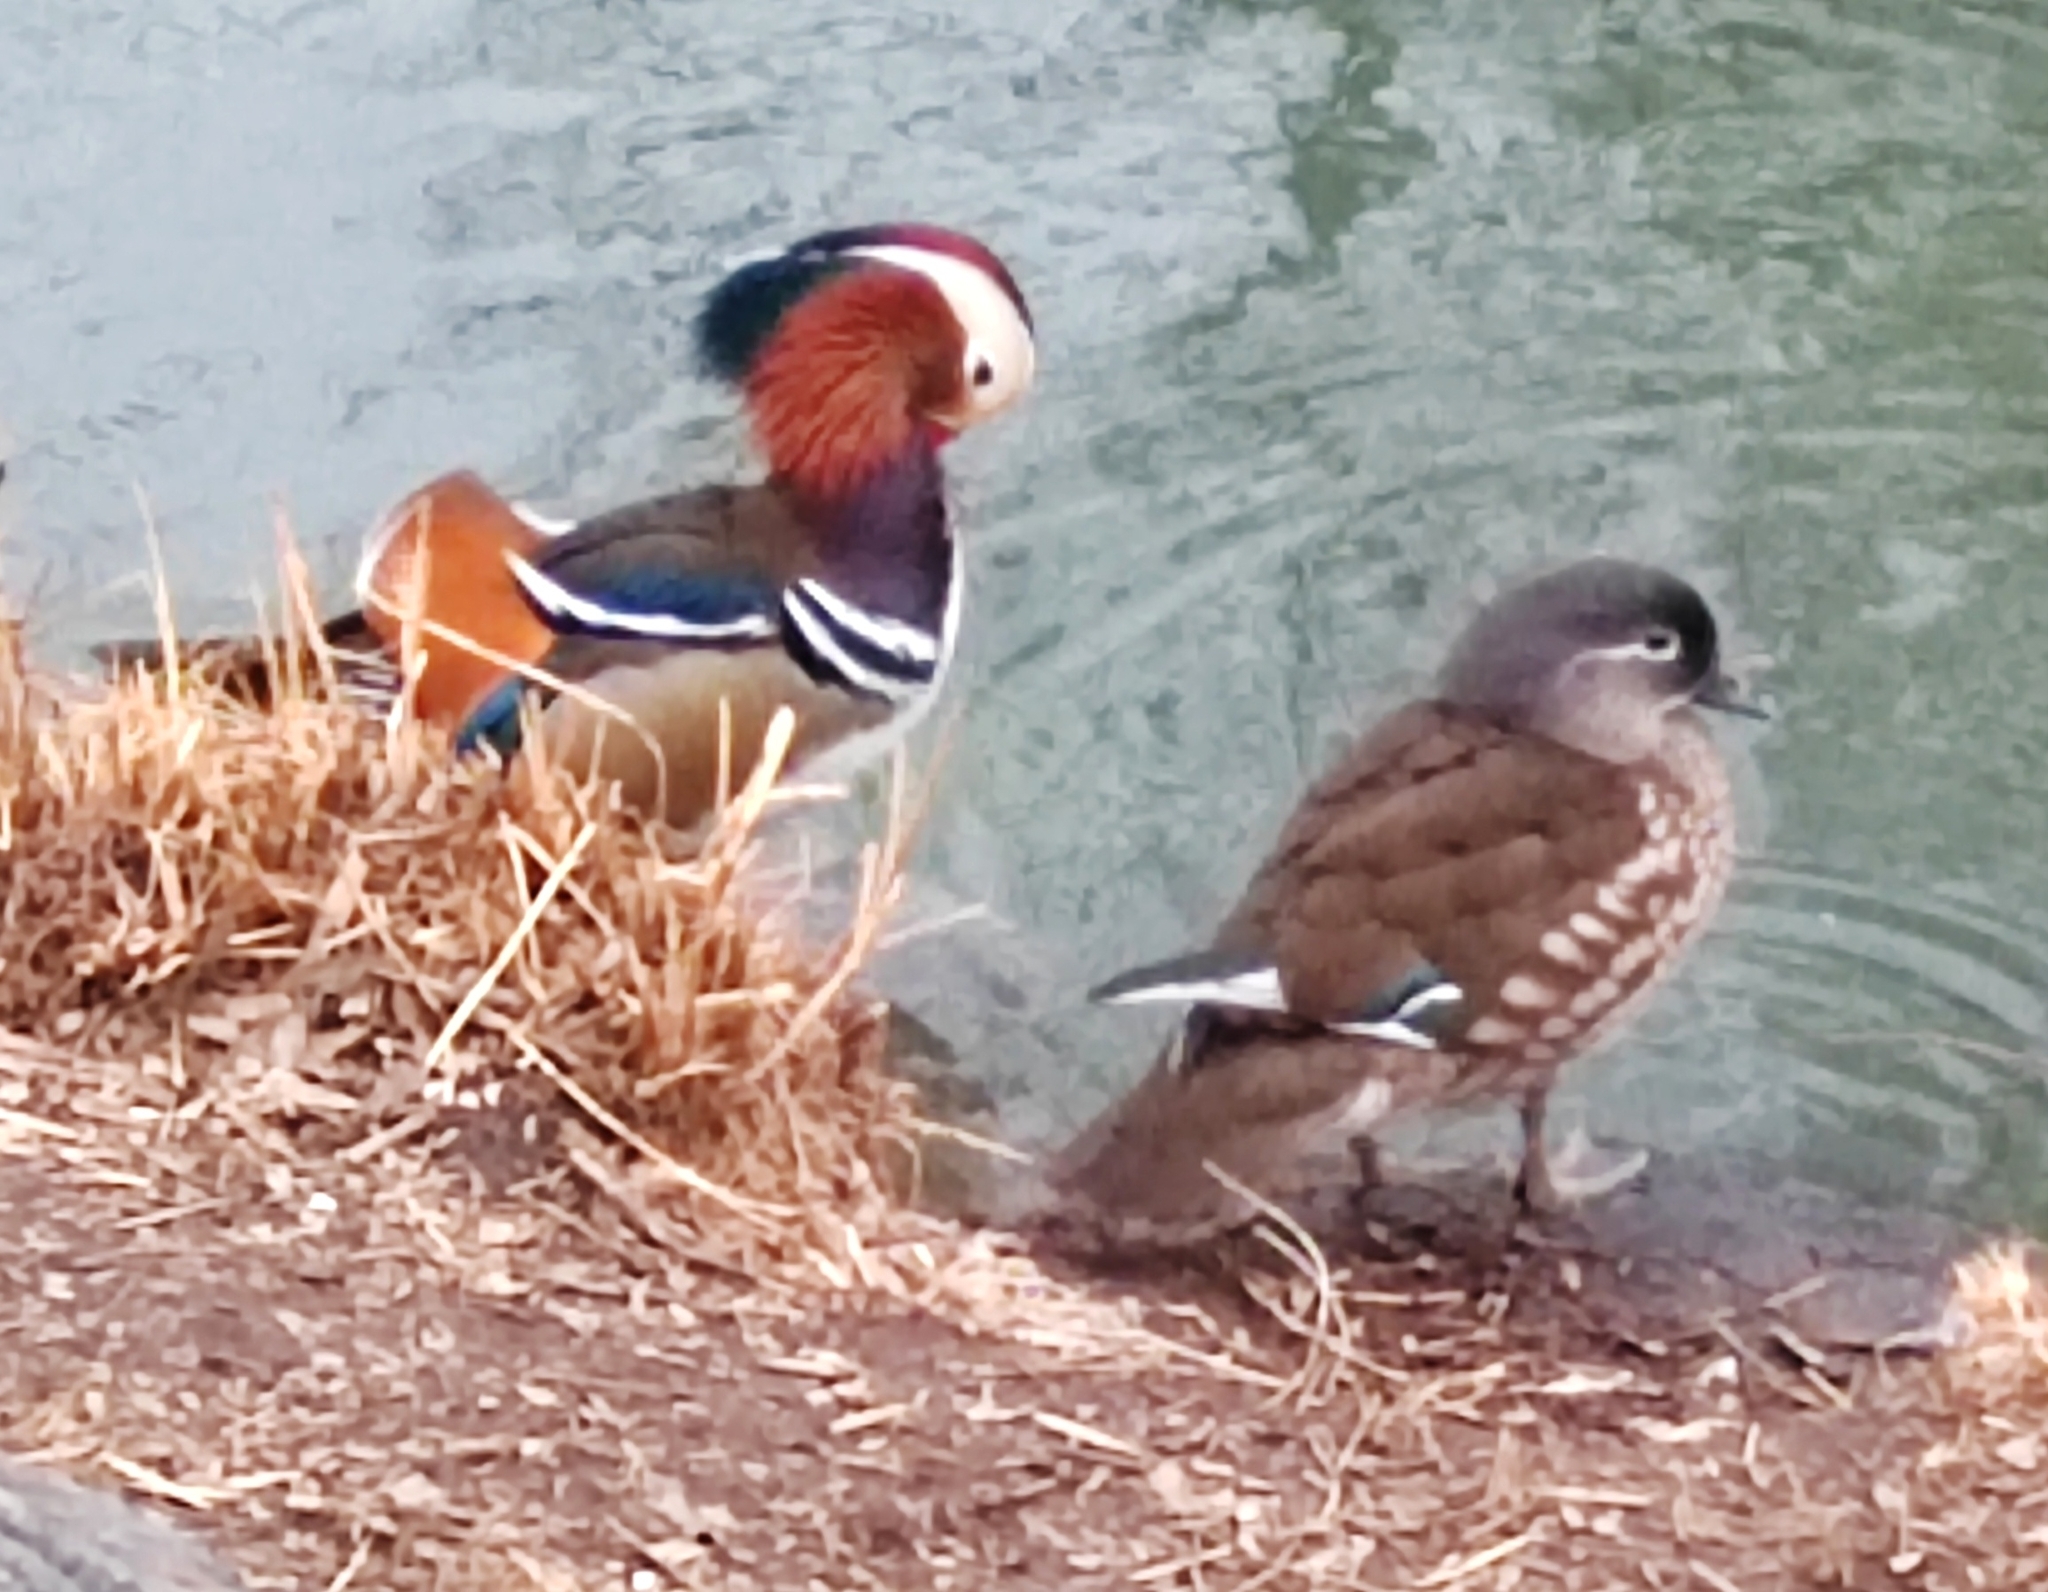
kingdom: Animalia
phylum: Chordata
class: Aves
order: Anseriformes
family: Anatidae
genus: Aix
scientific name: Aix galericulata
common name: Mandarin duck
